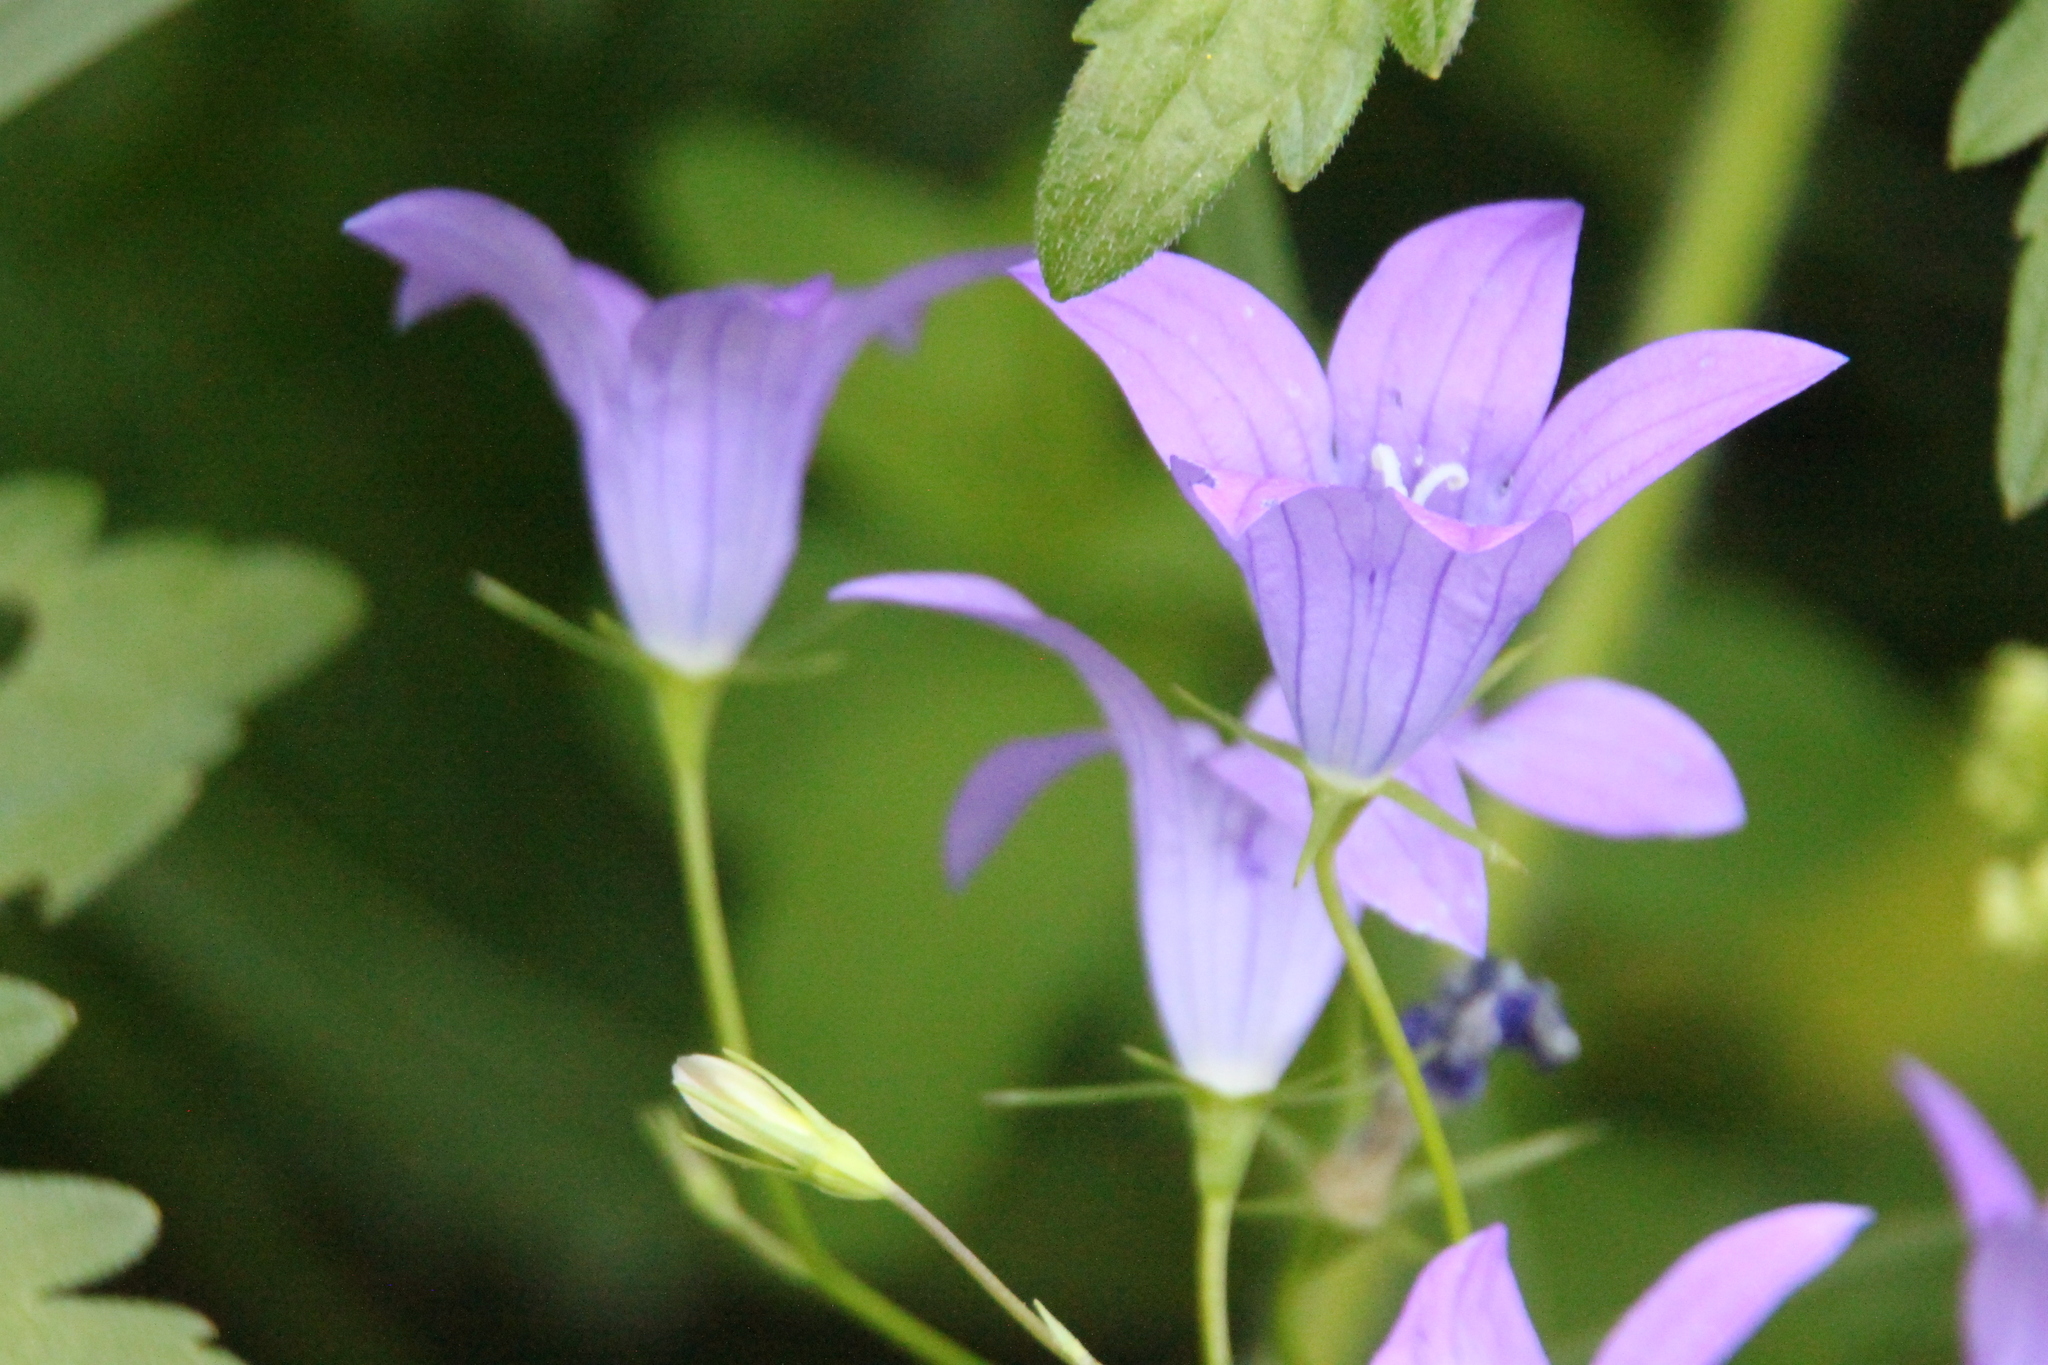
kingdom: Plantae
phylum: Tracheophyta
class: Magnoliopsida
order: Asterales
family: Campanulaceae
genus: Campanula
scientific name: Campanula patula
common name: Spreading bellflower
